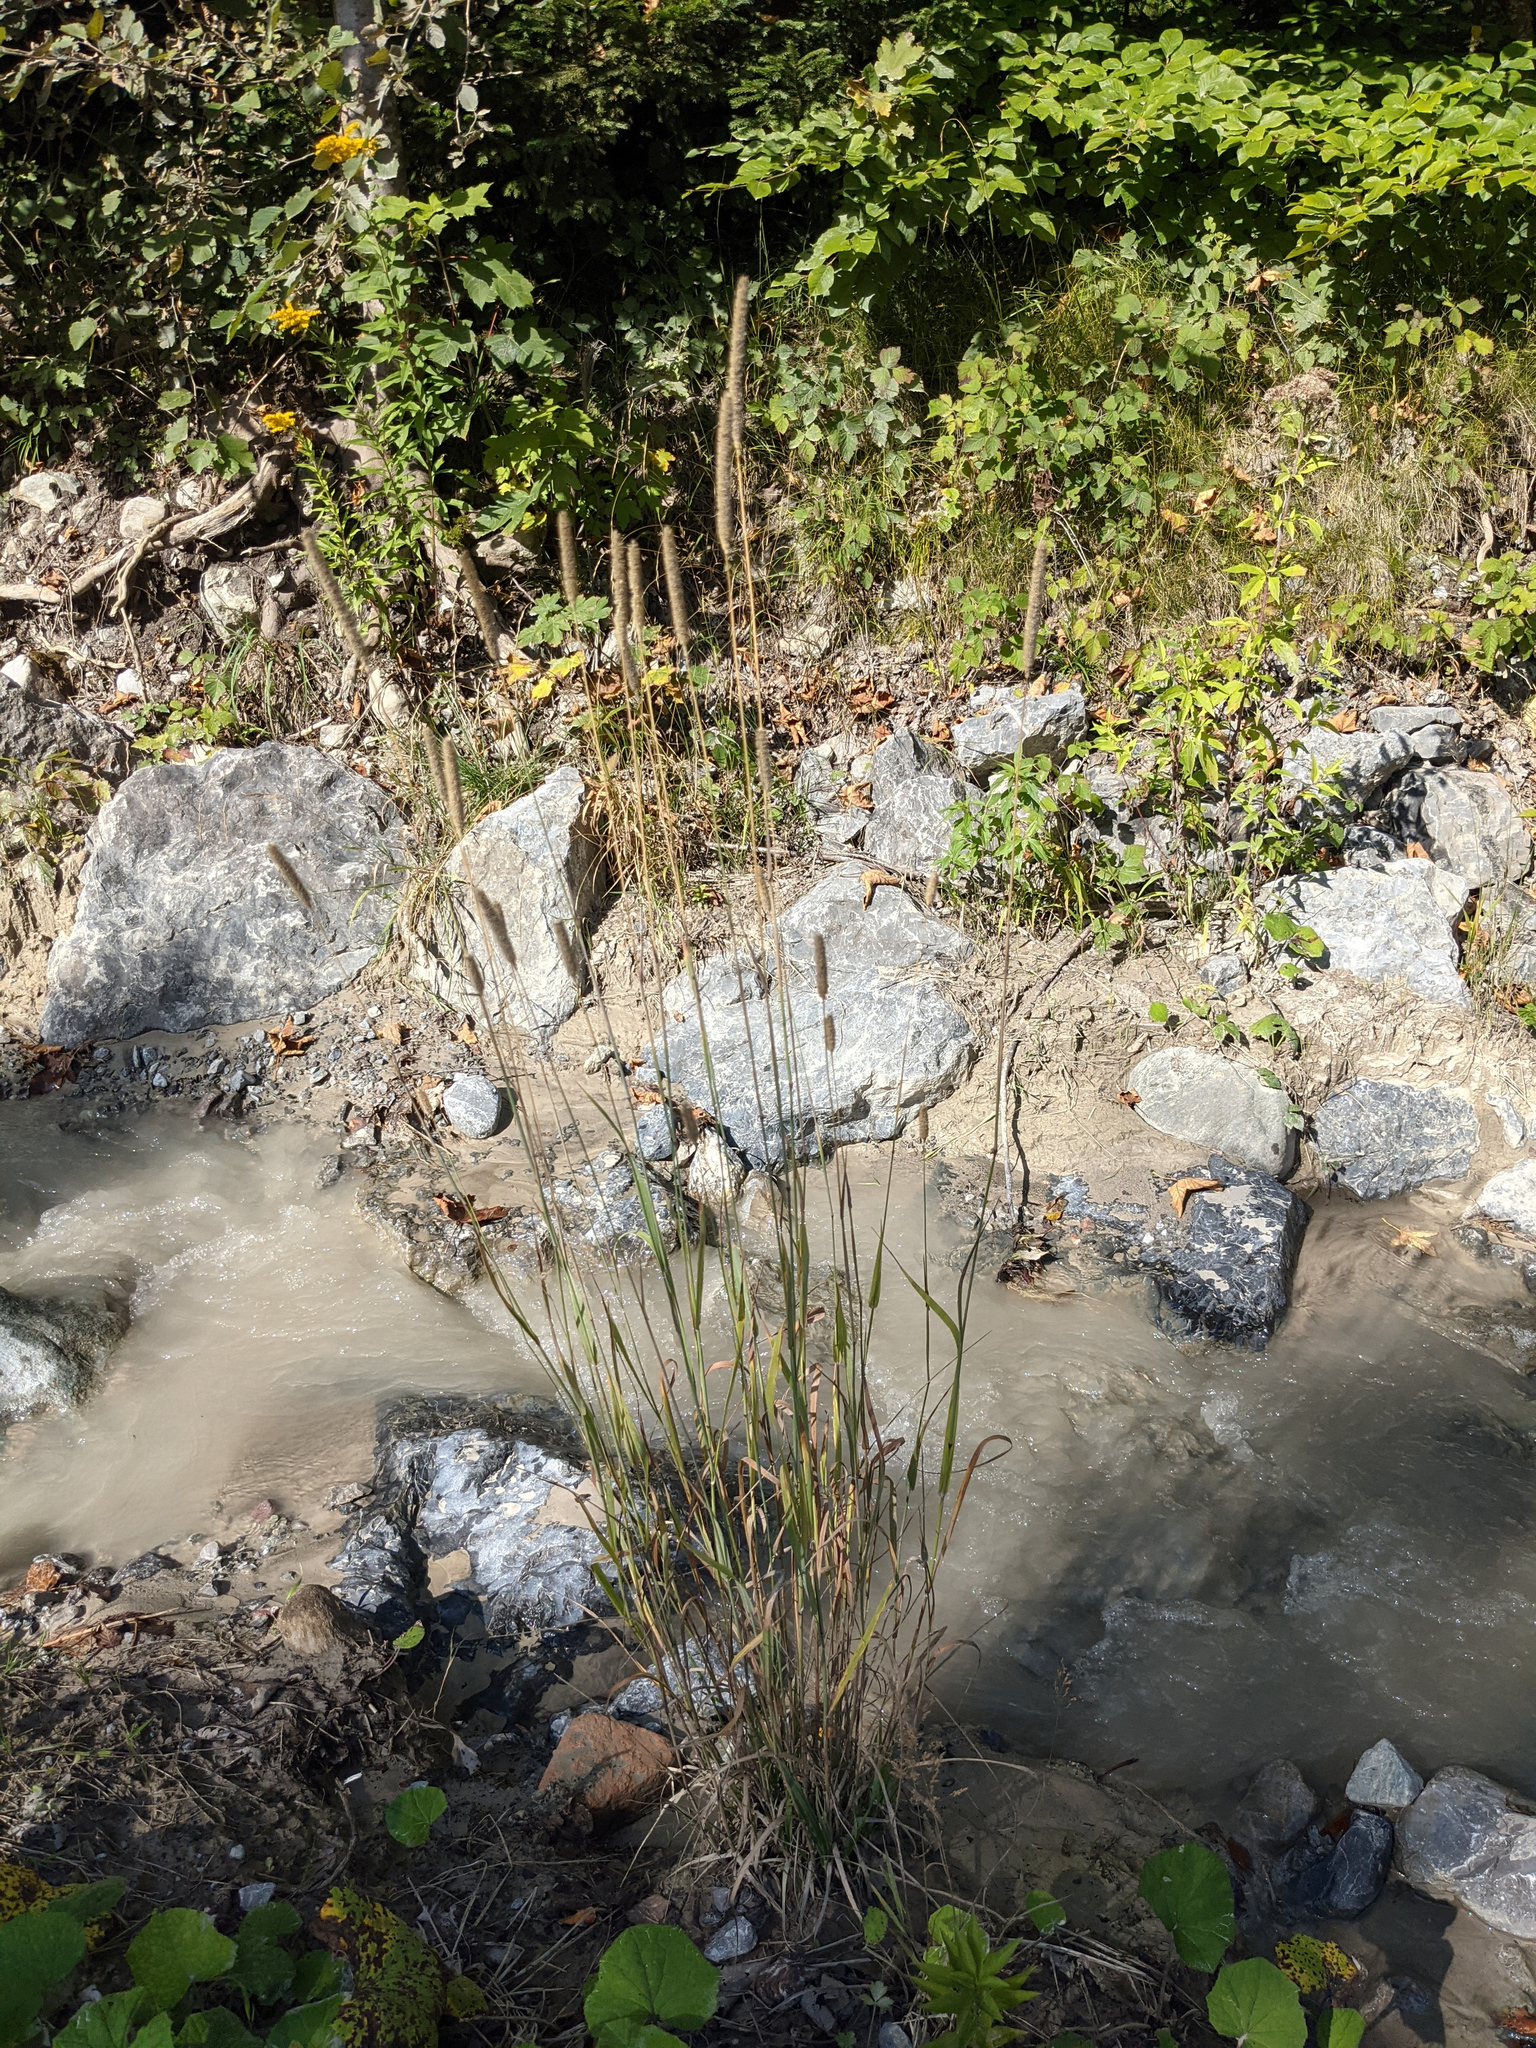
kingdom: Plantae
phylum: Tracheophyta
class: Liliopsida
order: Poales
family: Poaceae
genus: Phleum
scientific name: Phleum pratense
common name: Timothy grass
